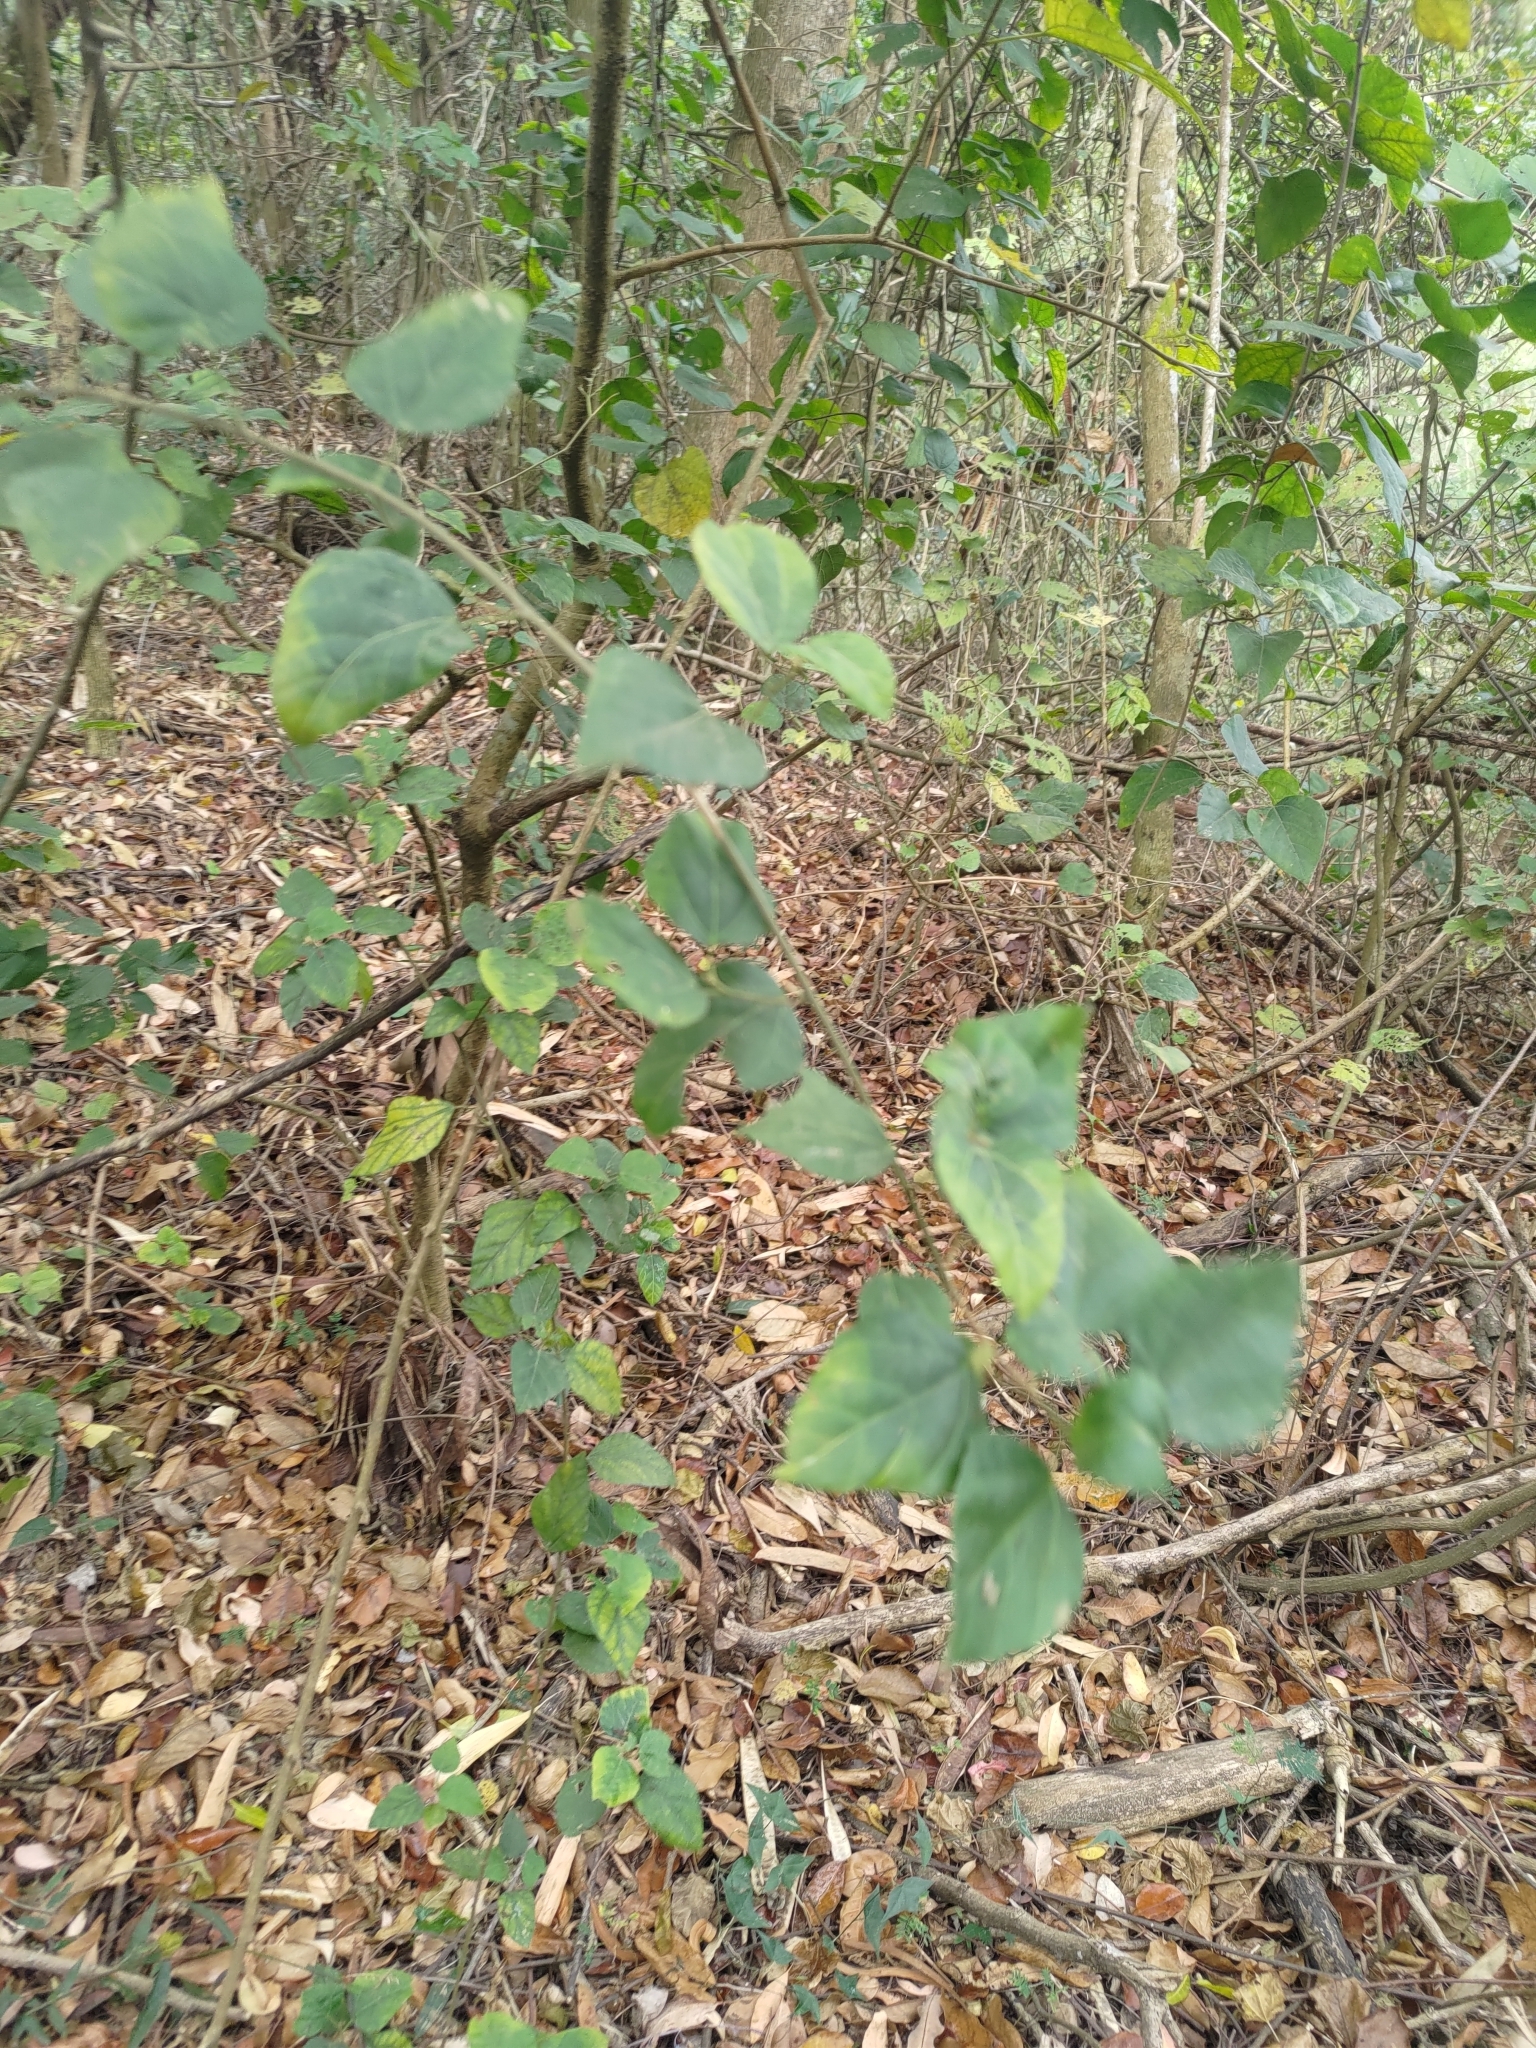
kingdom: Plantae
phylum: Tracheophyta
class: Magnoliopsida
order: Malpighiales
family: Euphorbiaceae
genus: Mallotus
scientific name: Mallotus repandus
